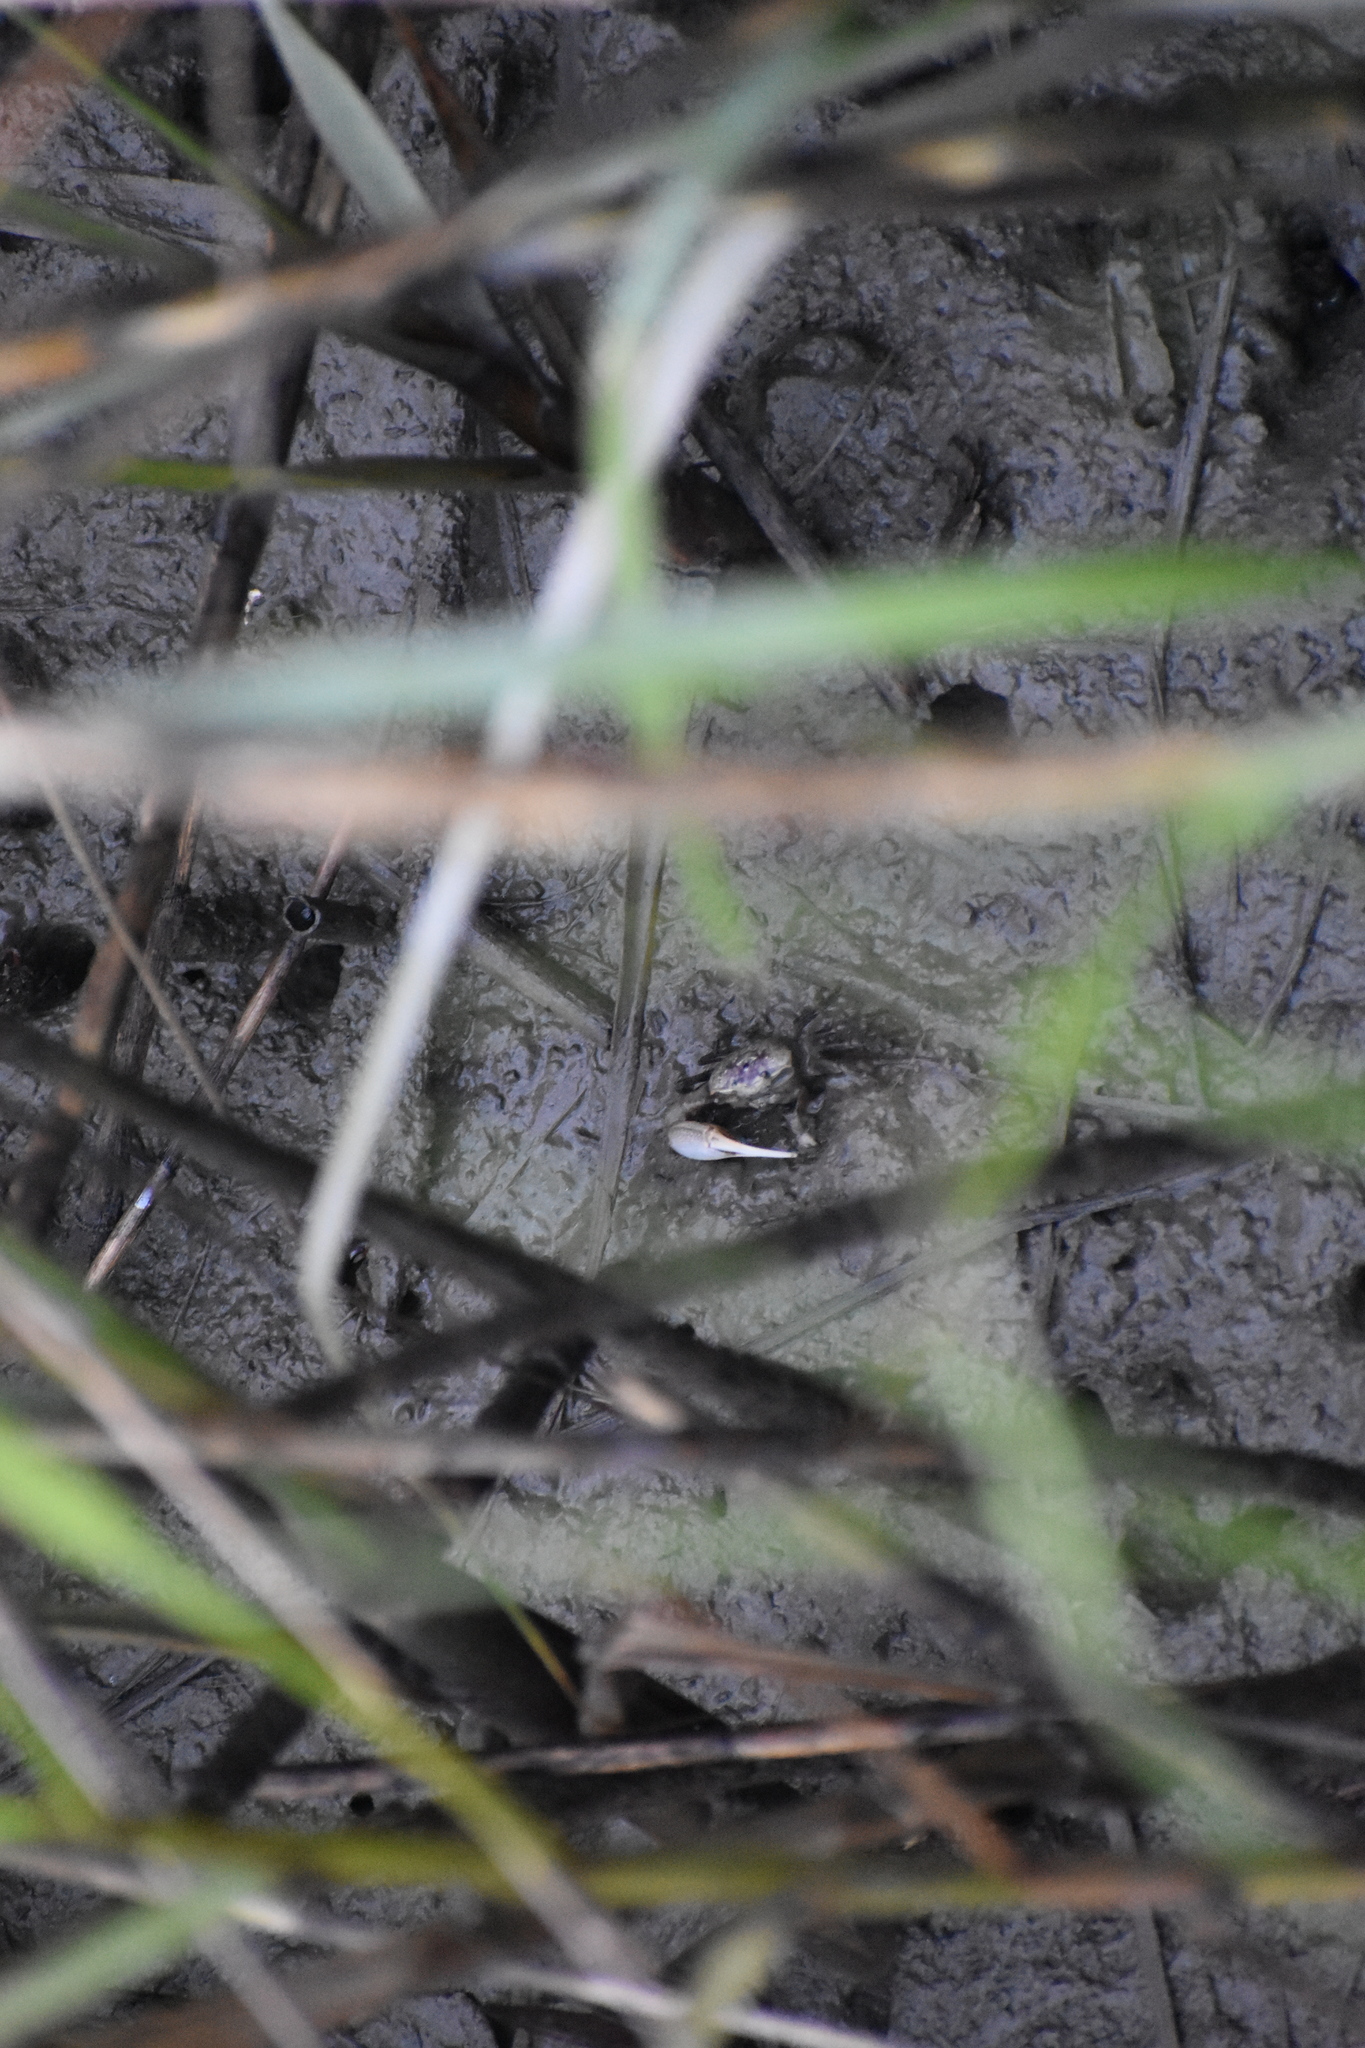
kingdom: Animalia
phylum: Arthropoda
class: Malacostraca
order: Decapoda
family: Ocypodidae
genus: Leptuca
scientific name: Leptuca pugilator
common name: Atlantic sand fiddler crab
